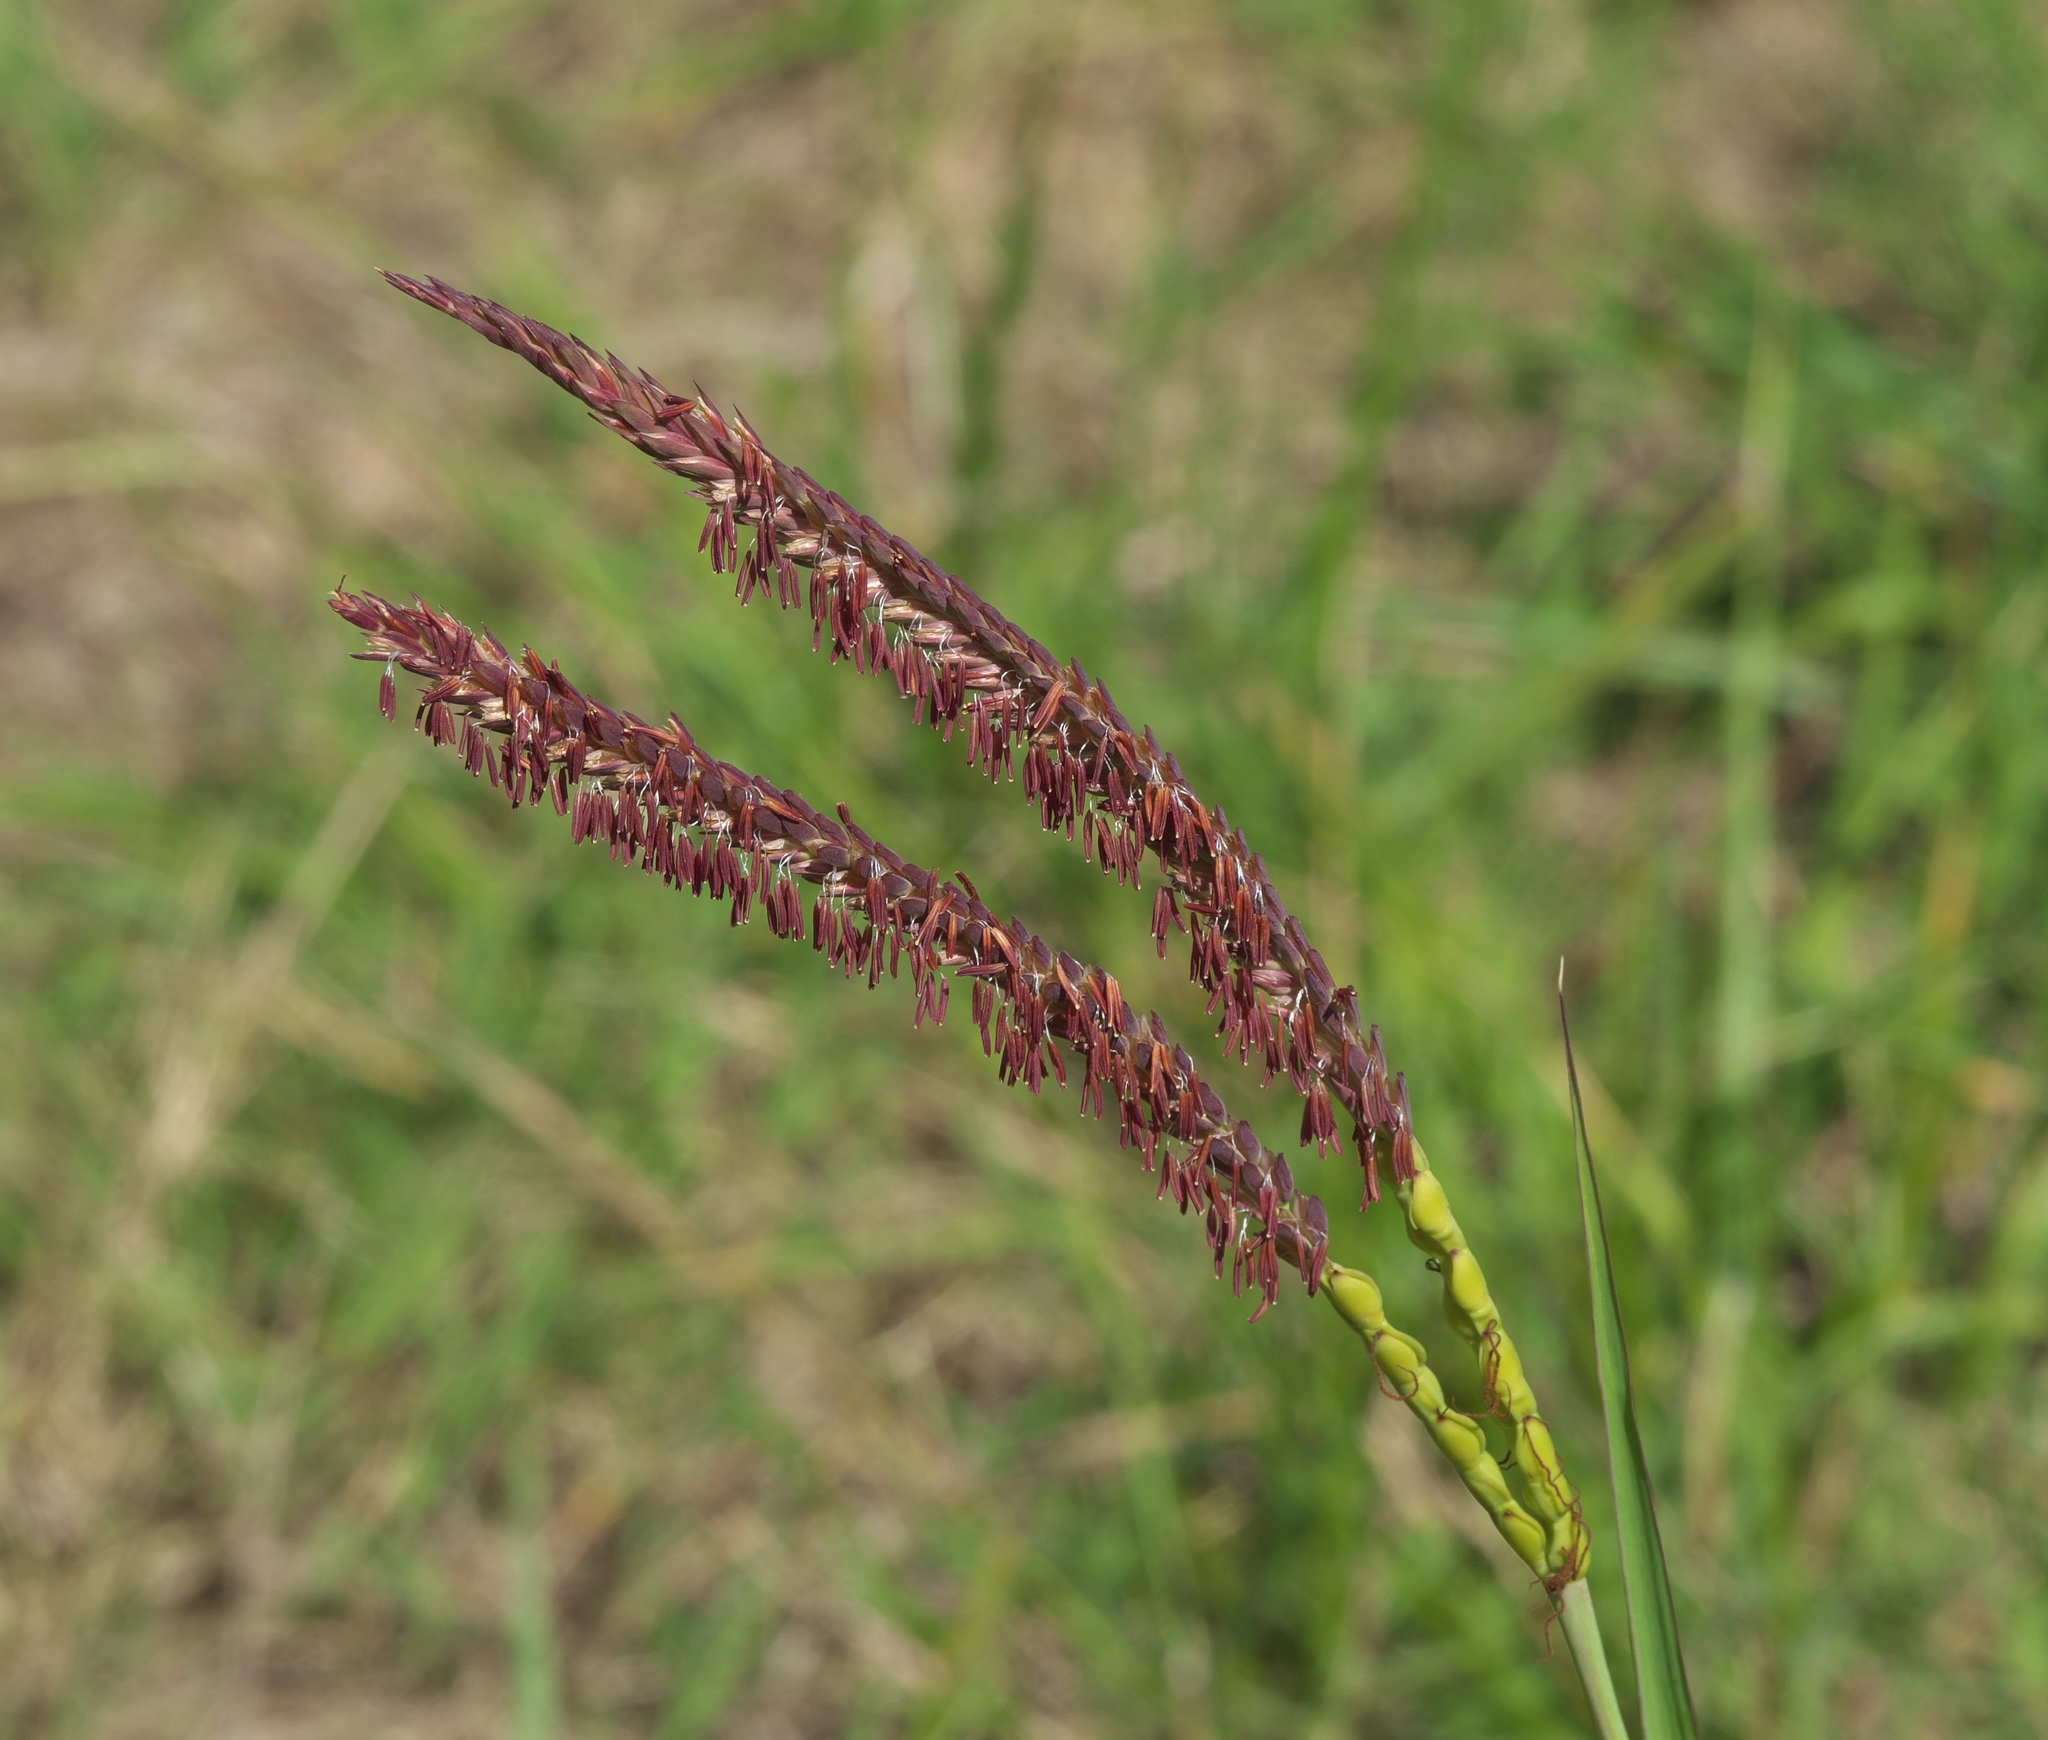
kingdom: Plantae
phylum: Tracheophyta
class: Liliopsida
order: Poales
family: Poaceae
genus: Tripsacum
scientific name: Tripsacum dactyloides
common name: Buffalo-grass
